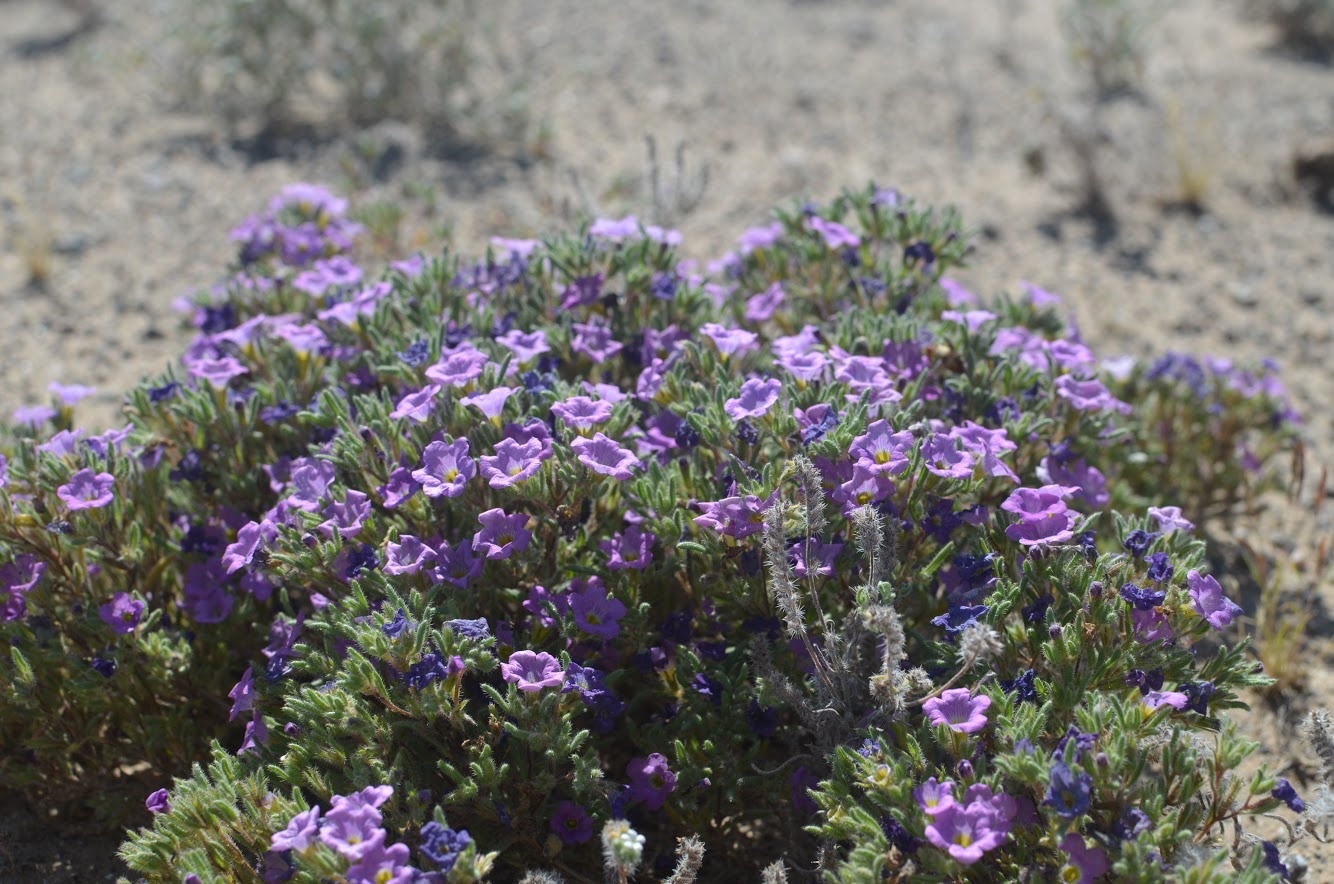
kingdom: Plantae
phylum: Tracheophyta
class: Magnoliopsida
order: Boraginales
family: Namaceae
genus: Nama
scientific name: Nama hispida
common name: Bristly nama
